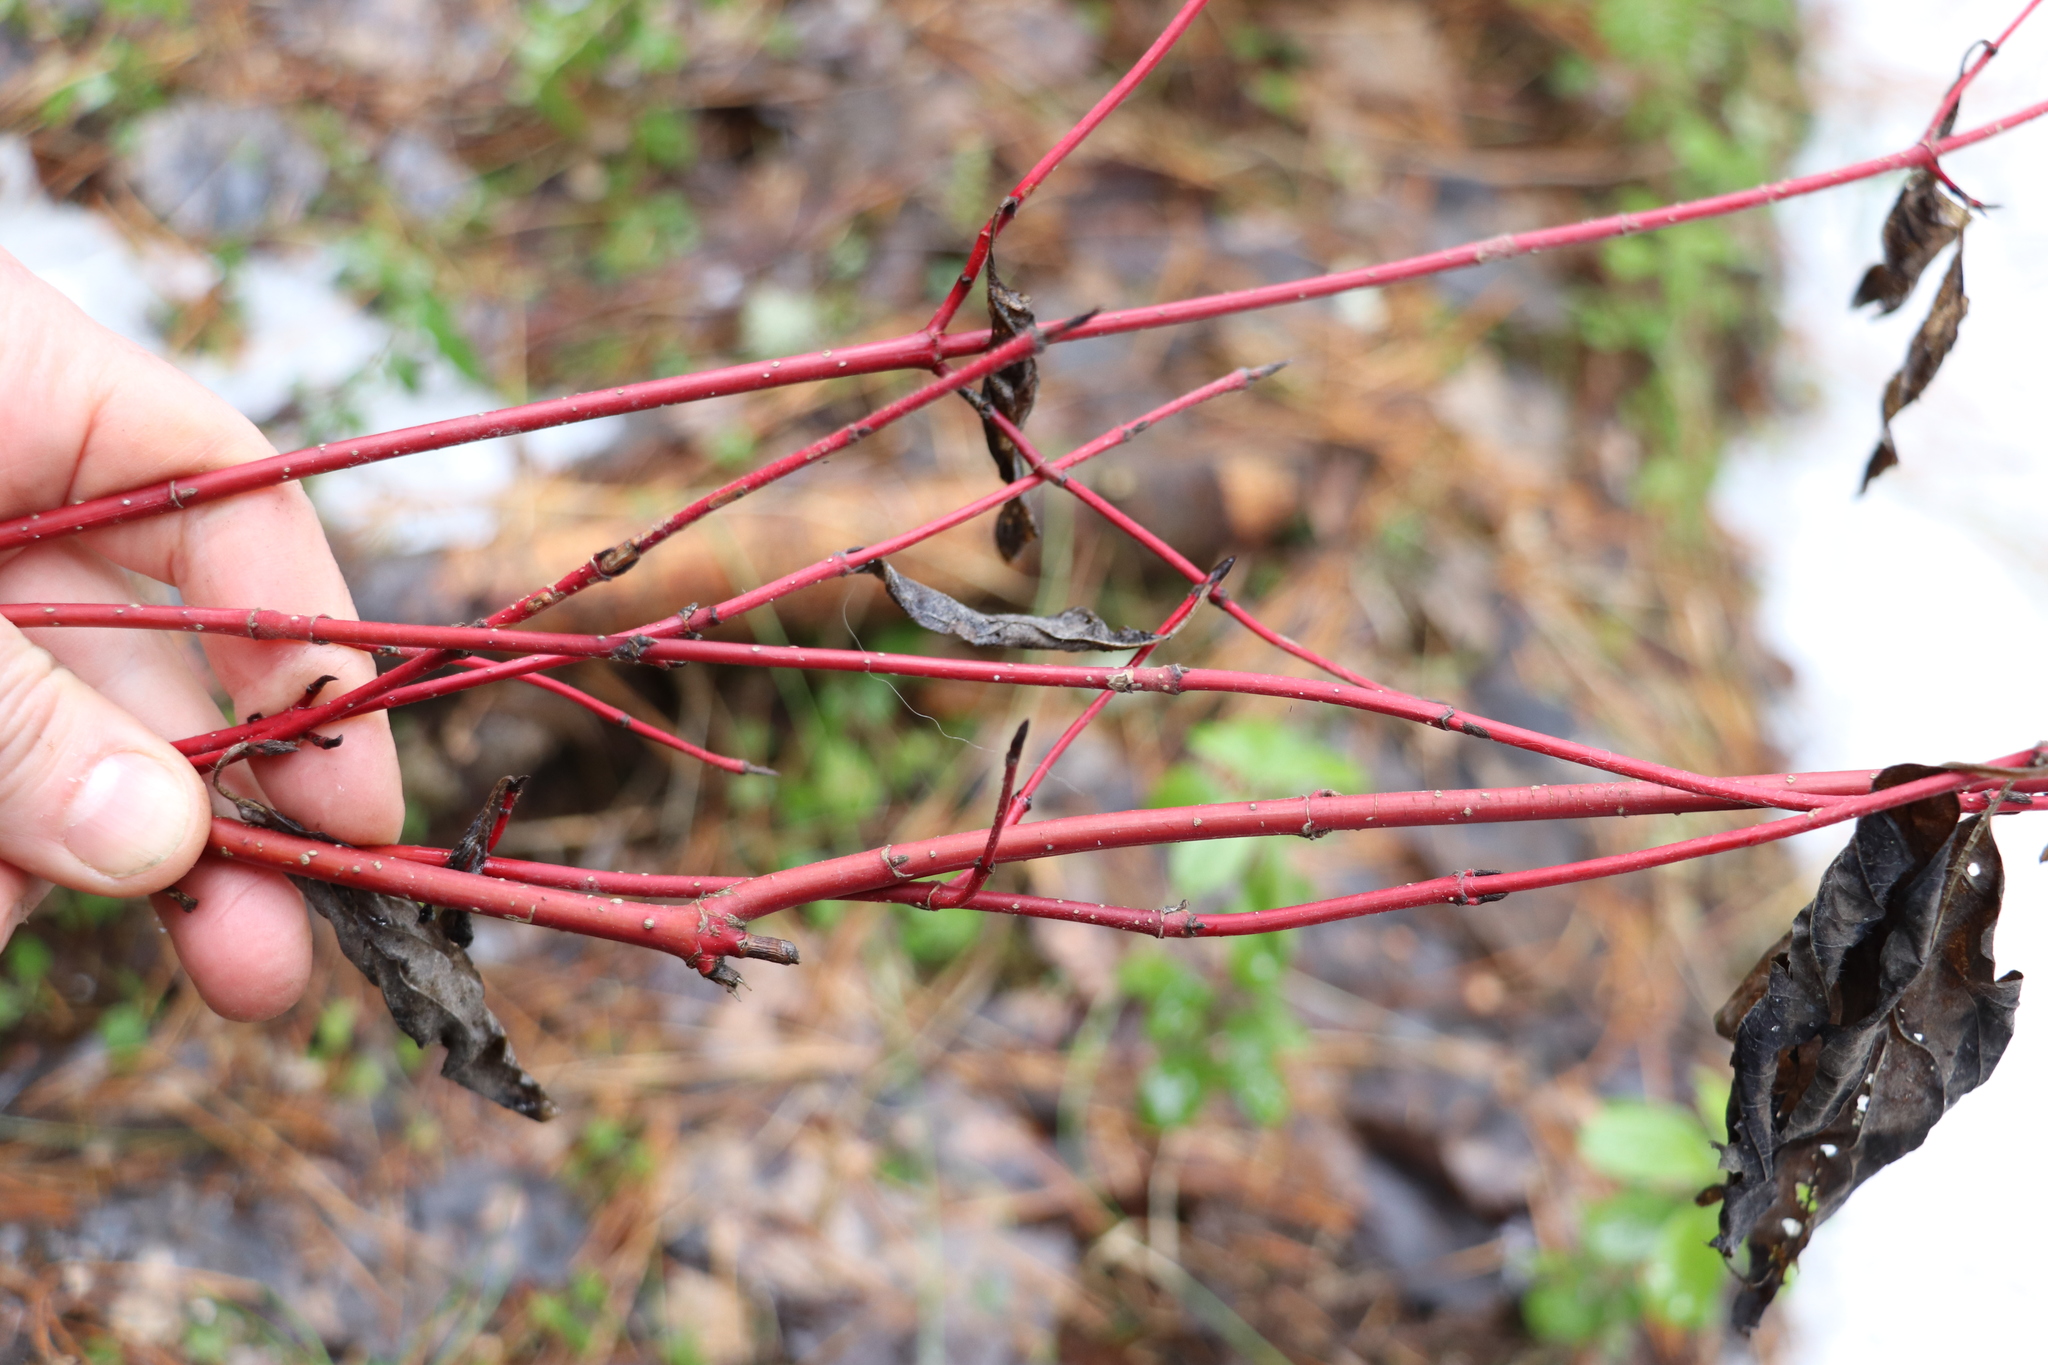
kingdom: Plantae
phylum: Tracheophyta
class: Magnoliopsida
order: Cornales
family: Cornaceae
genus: Cornus
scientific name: Cornus alba
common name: White dogwood
